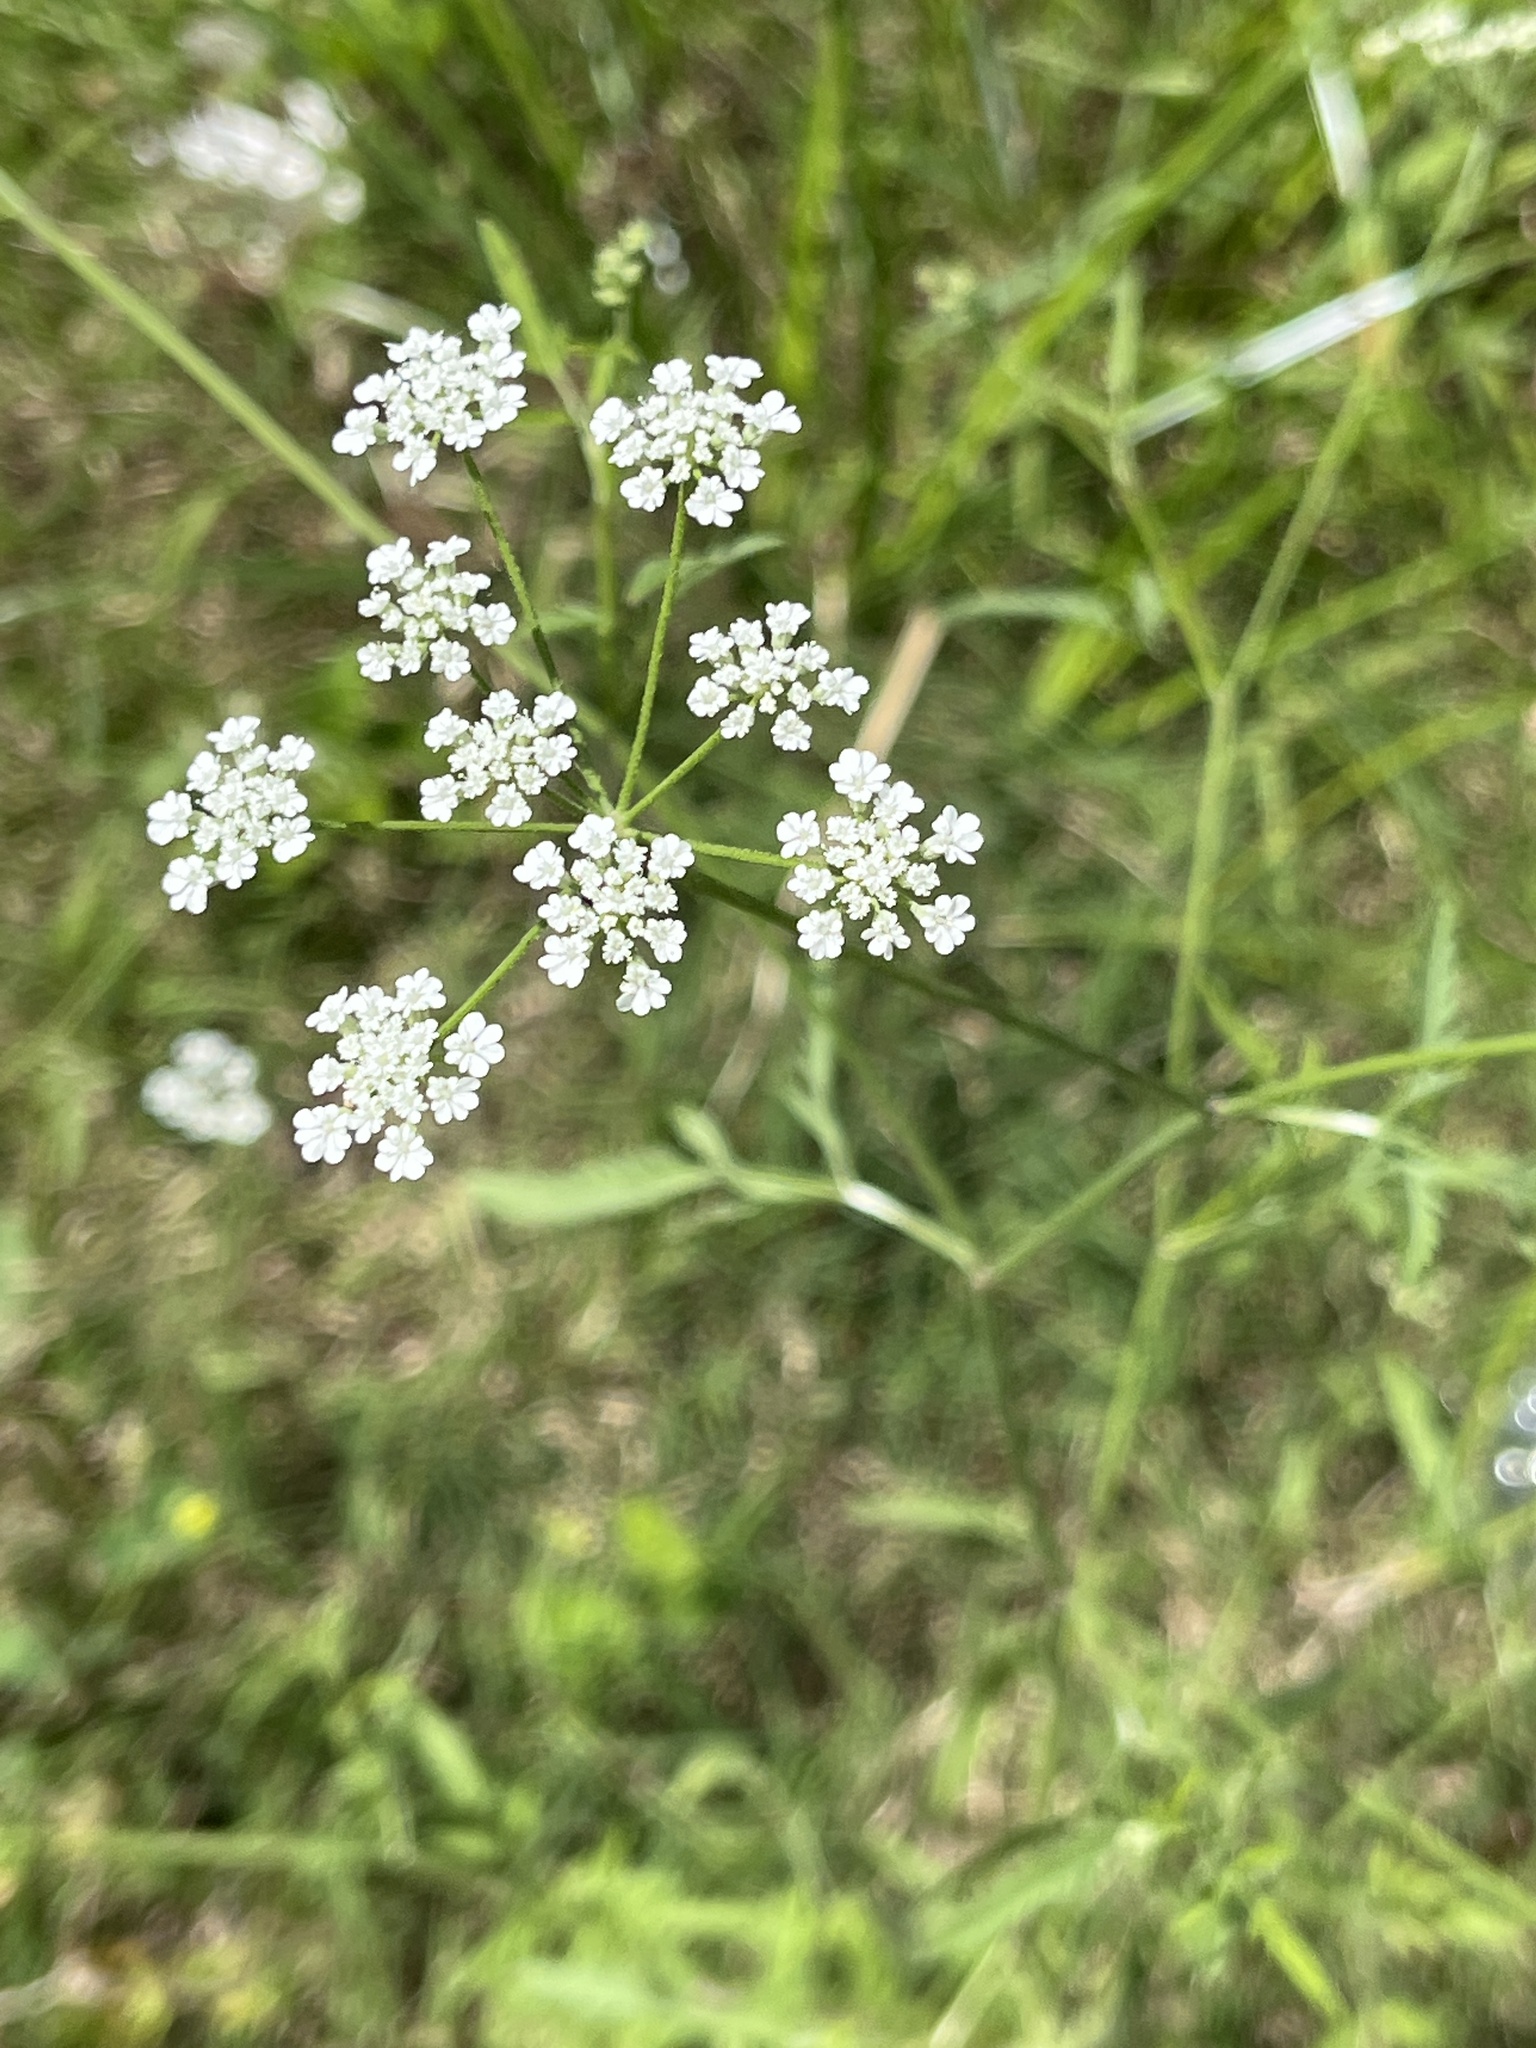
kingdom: Plantae
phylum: Tracheophyta
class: Magnoliopsida
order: Apiales
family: Apiaceae
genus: Torilis
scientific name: Torilis arvensis
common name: Spreading hedge-parsley
